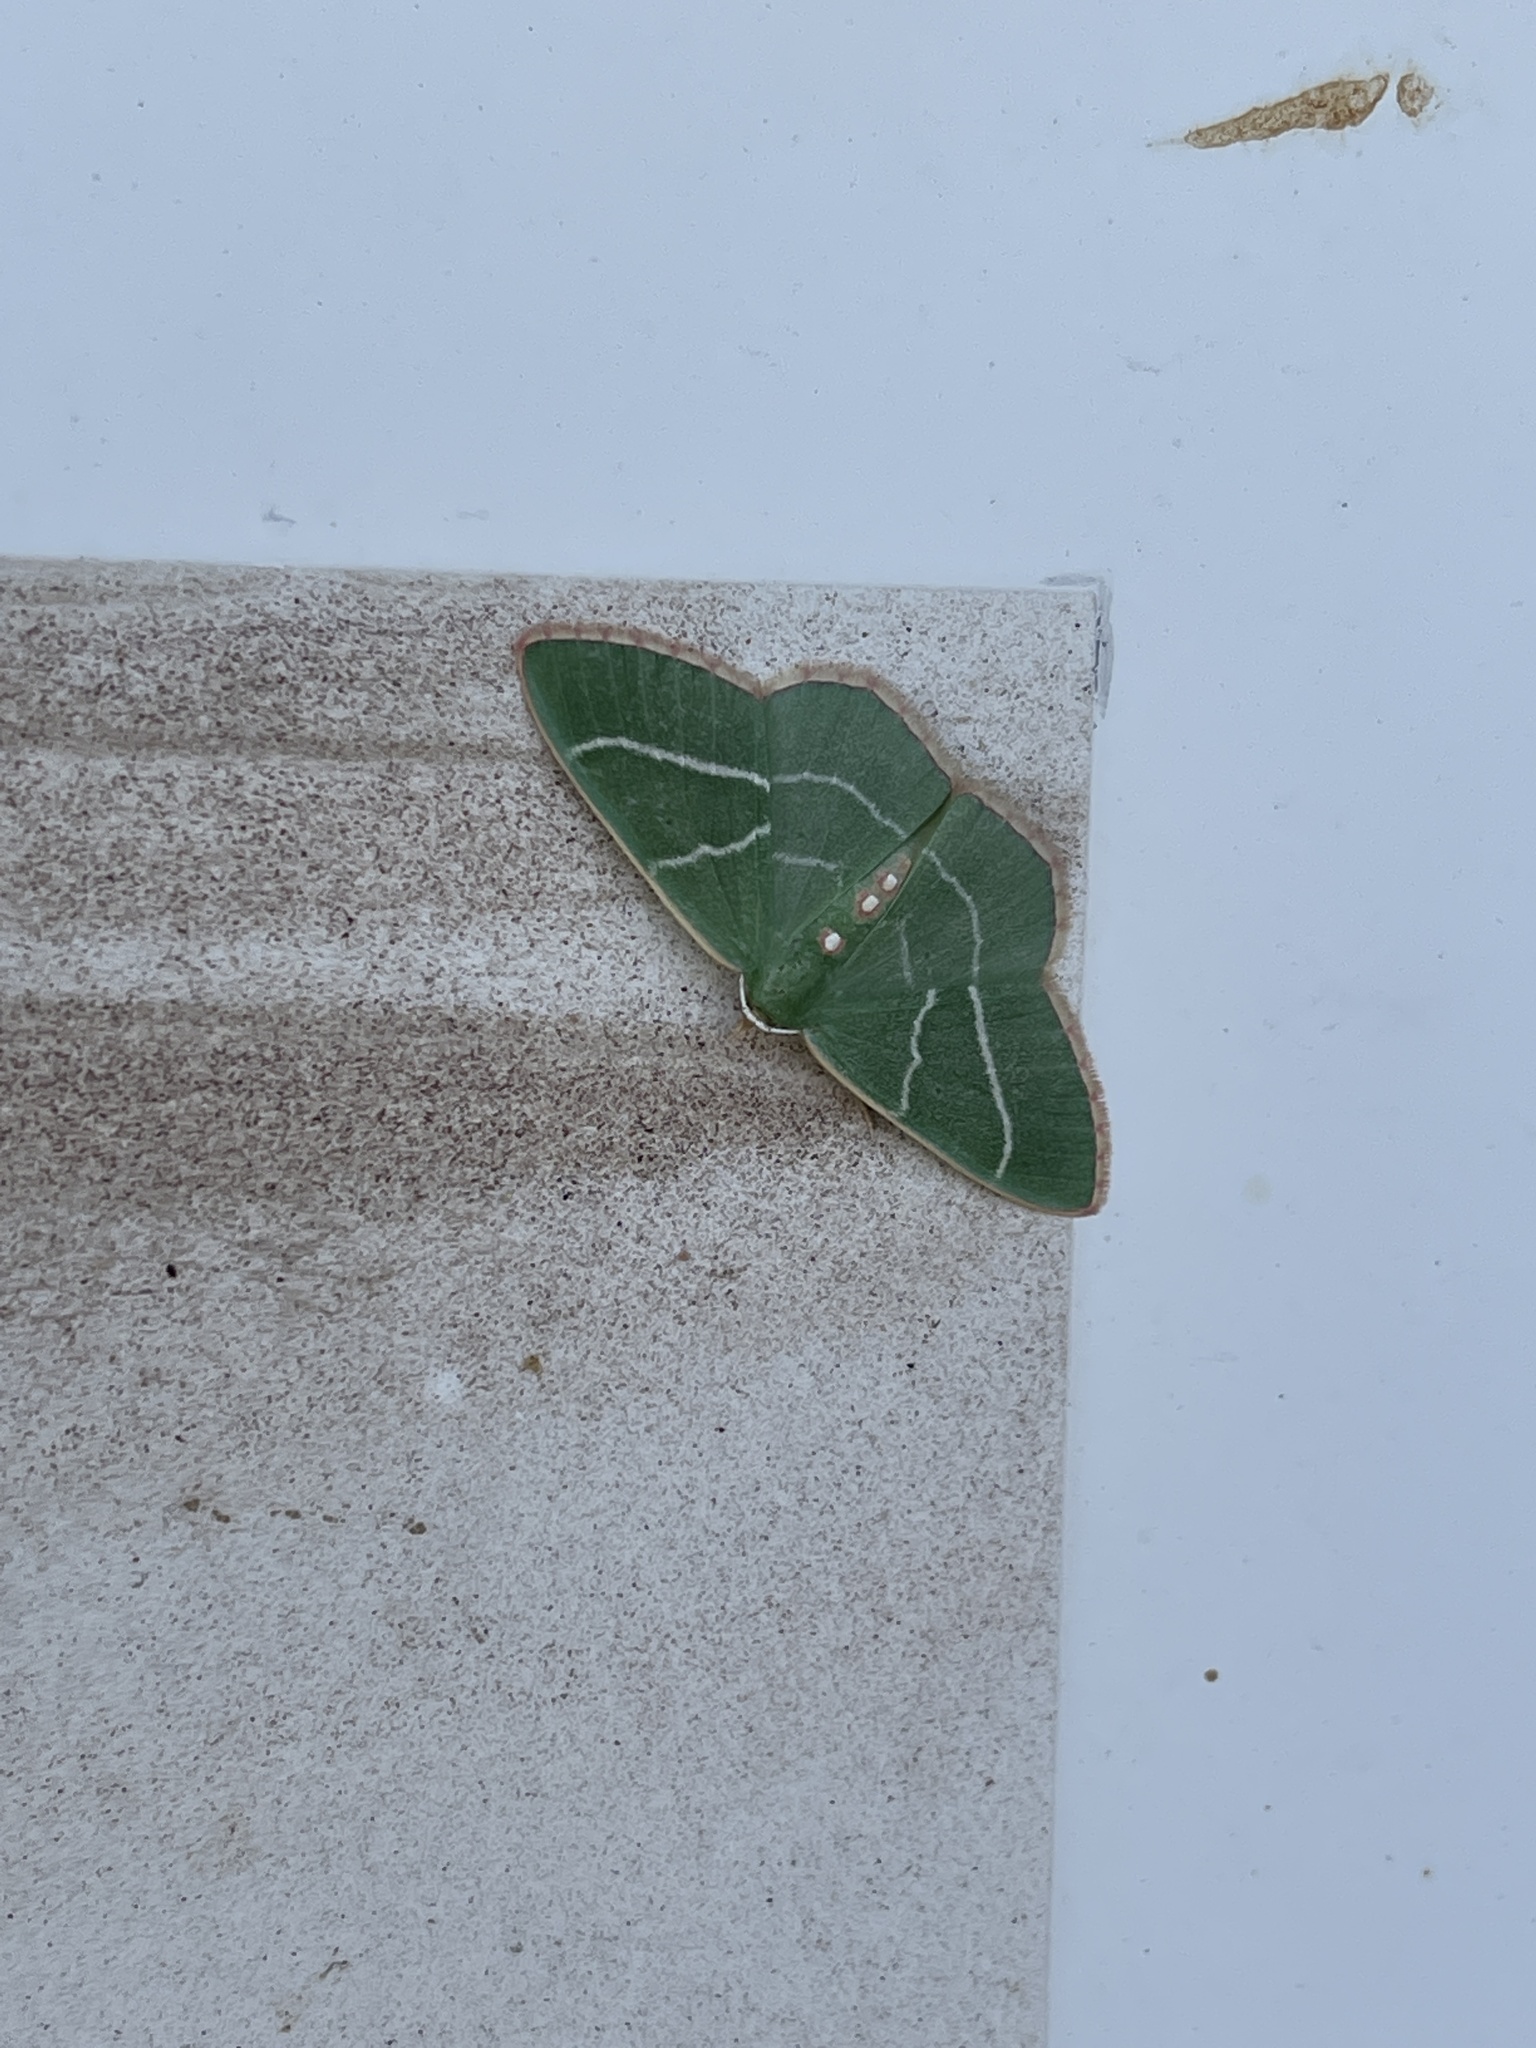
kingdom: Animalia
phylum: Arthropoda
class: Insecta
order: Lepidoptera
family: Geometridae
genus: Nemoria
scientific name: Nemoria obliqua
